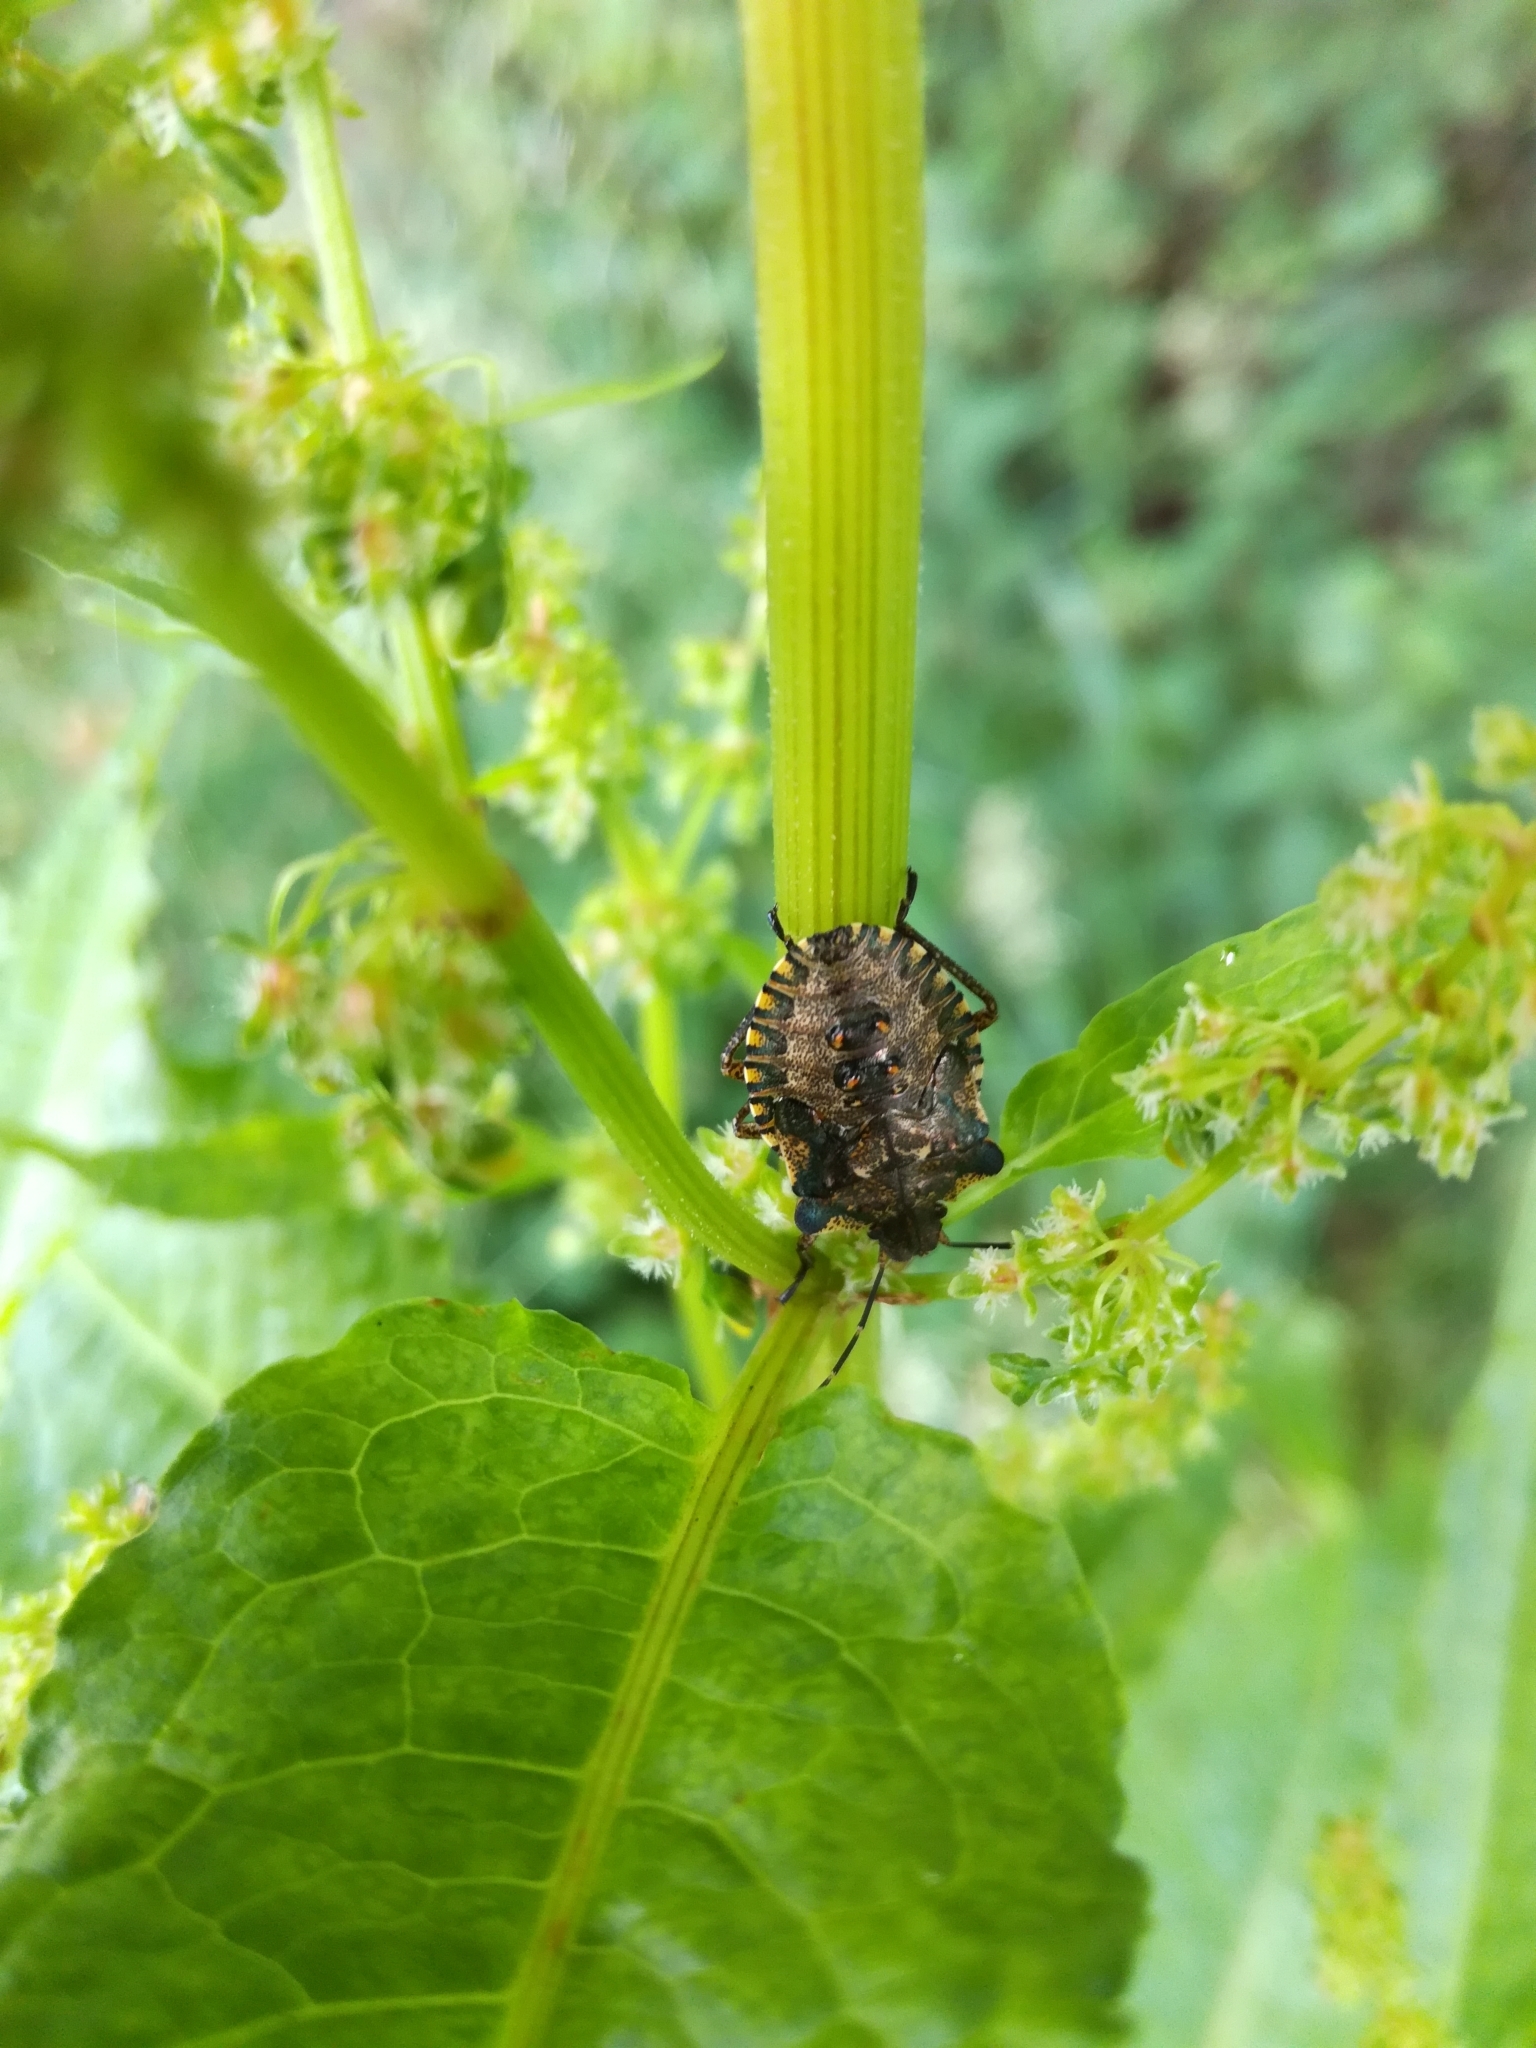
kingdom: Animalia
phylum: Arthropoda
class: Insecta
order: Hemiptera
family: Pentatomidae
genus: Pentatoma
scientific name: Pentatoma rufipes
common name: Forest bug
